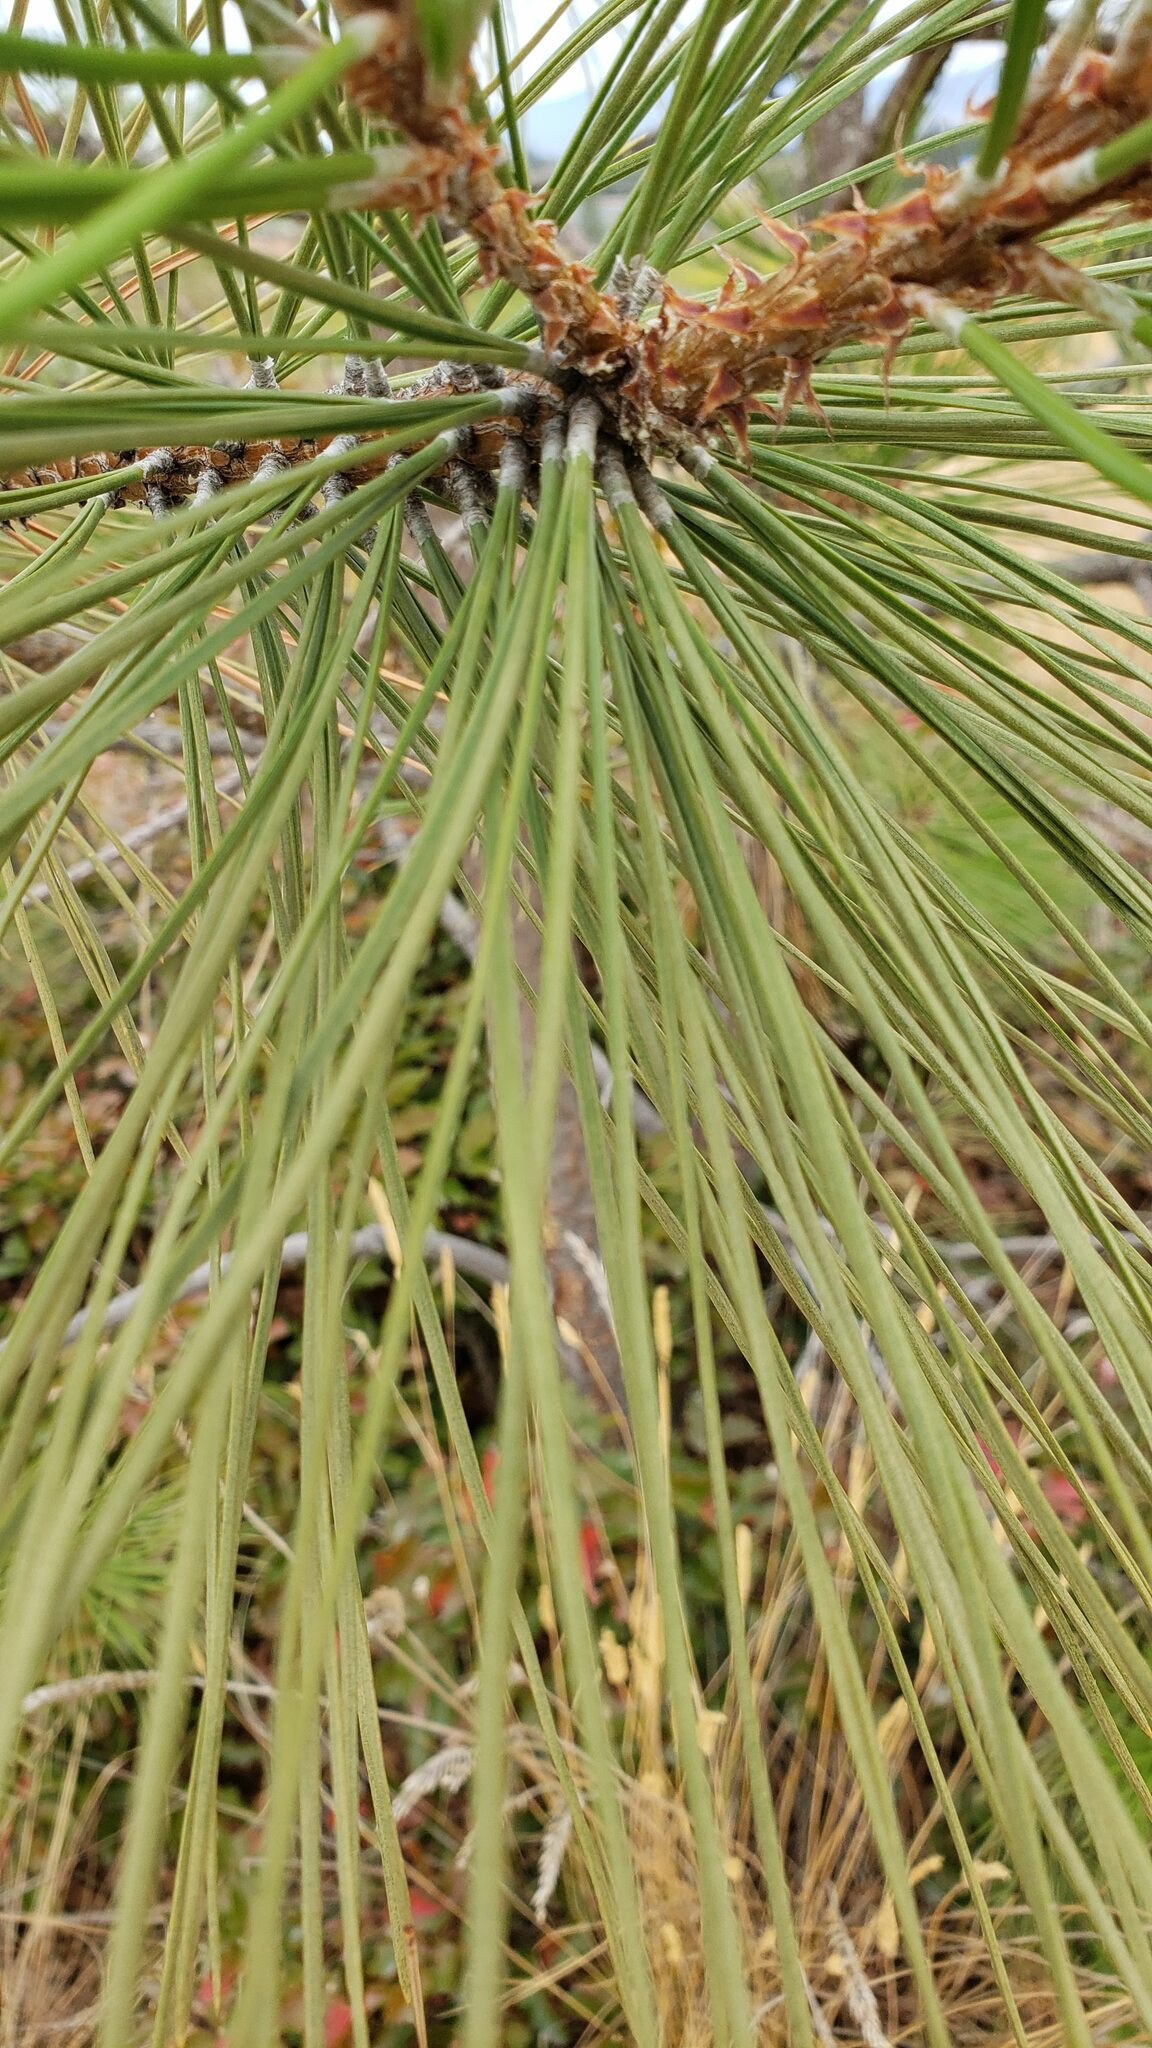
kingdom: Plantae
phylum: Tracheophyta
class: Pinopsida
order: Pinales
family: Pinaceae
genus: Pinus
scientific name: Pinus ponderosa
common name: Western yellow-pine
